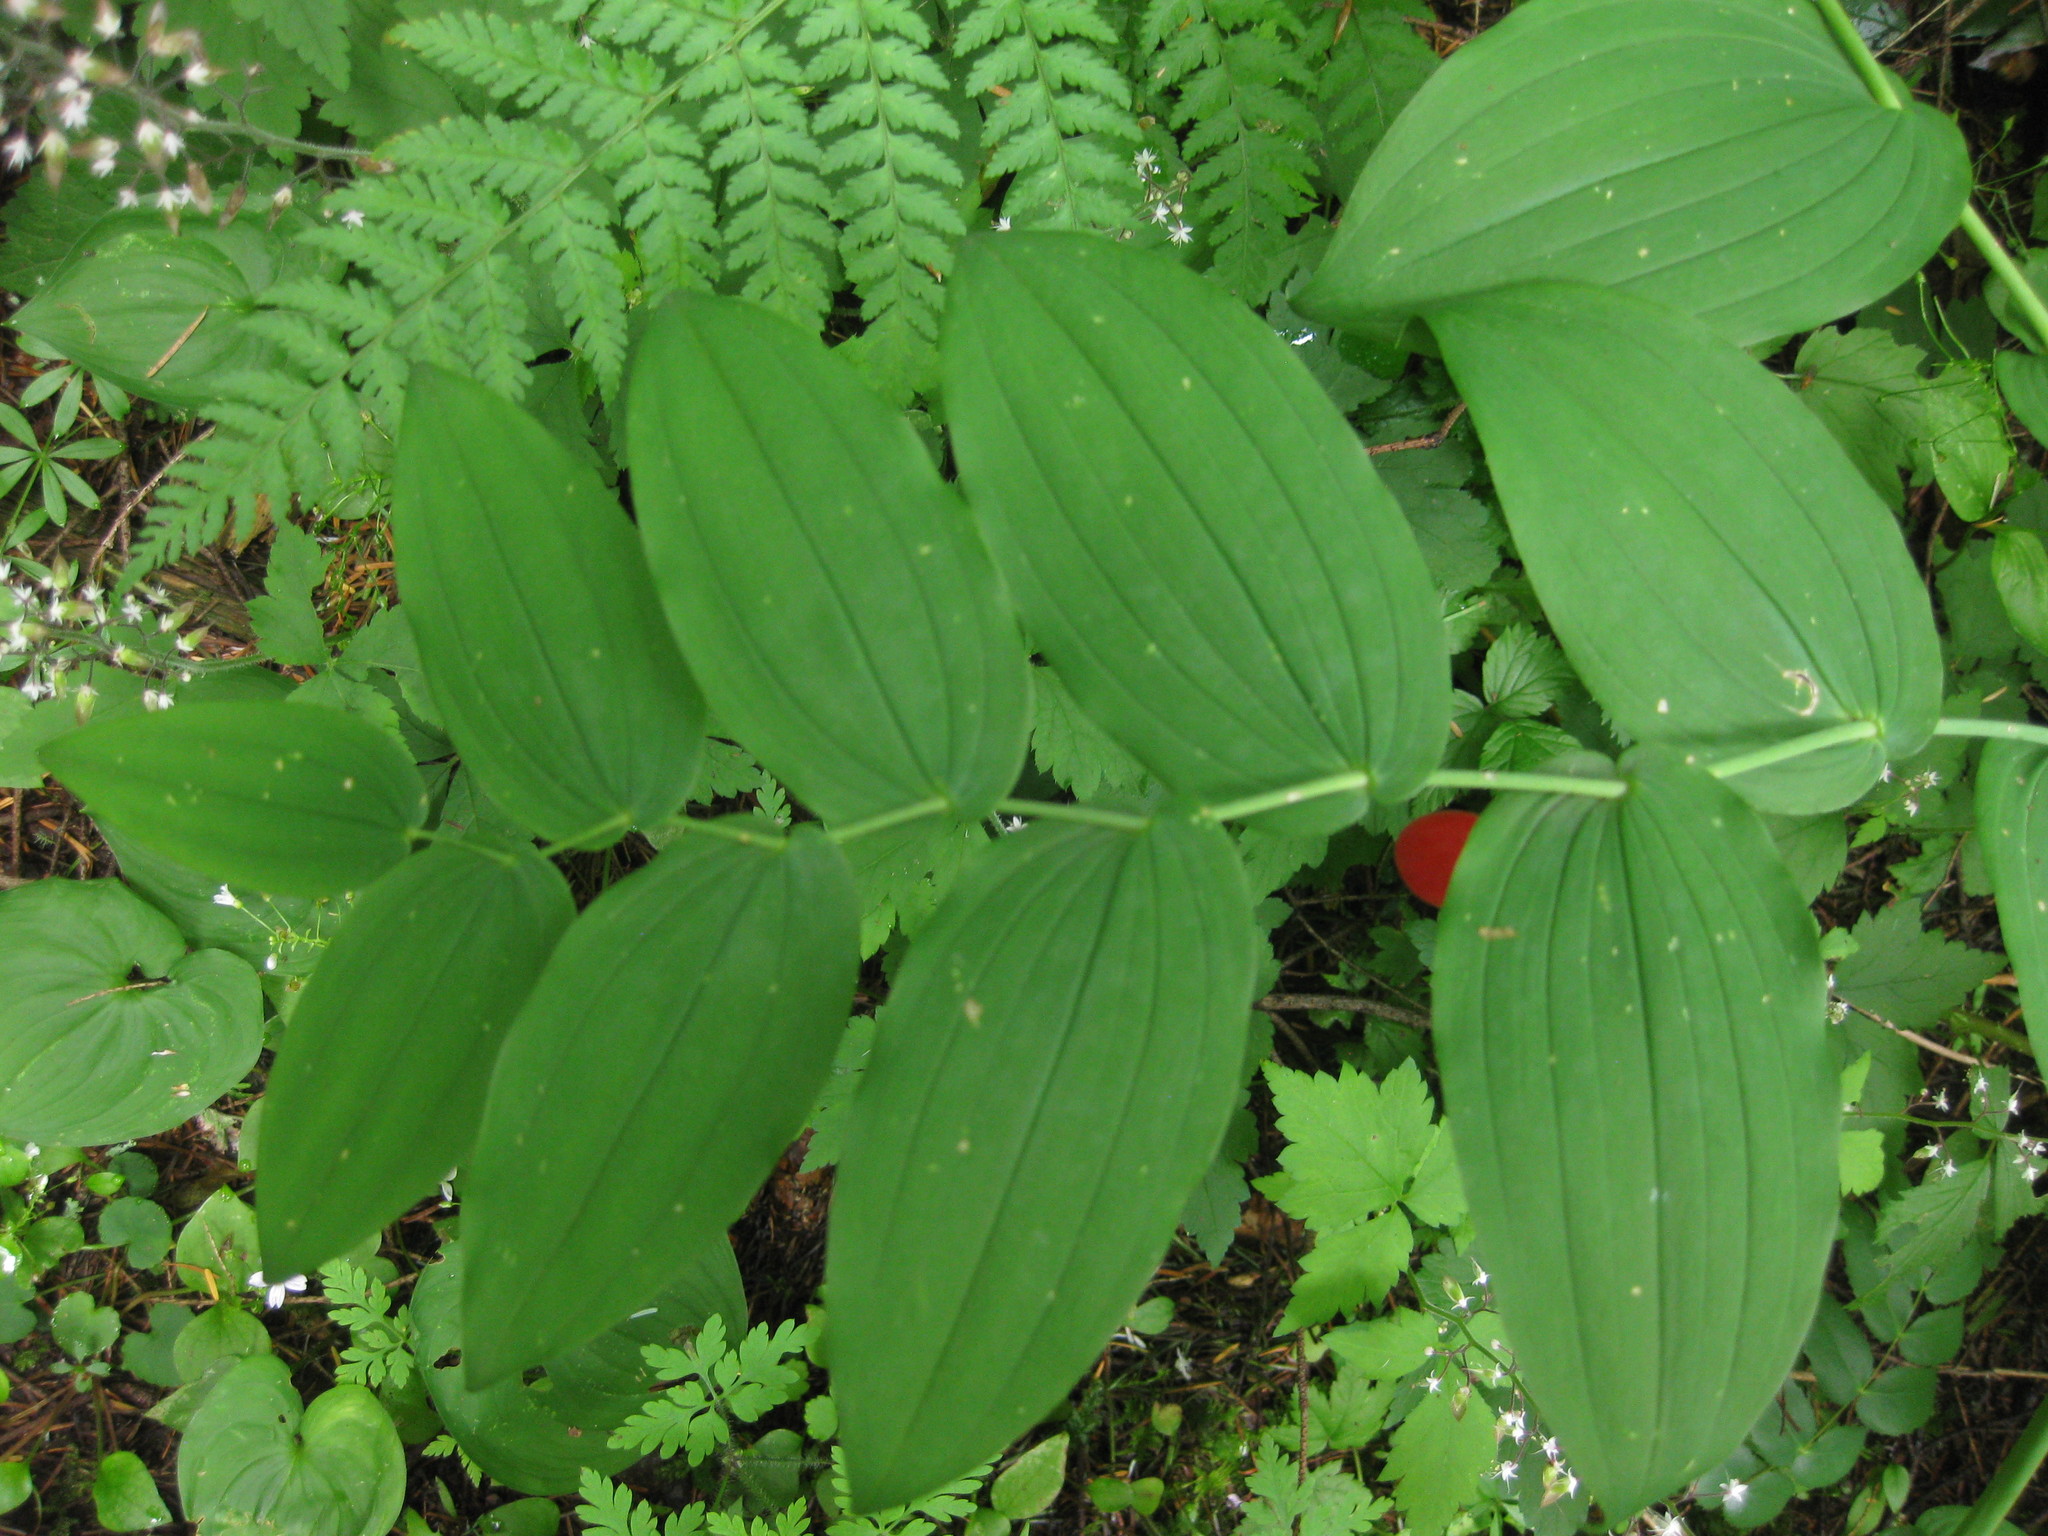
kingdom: Plantae
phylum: Tracheophyta
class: Liliopsida
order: Liliales
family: Liliaceae
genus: Streptopus
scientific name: Streptopus amplexifolius
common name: Clasp twisted stalk
